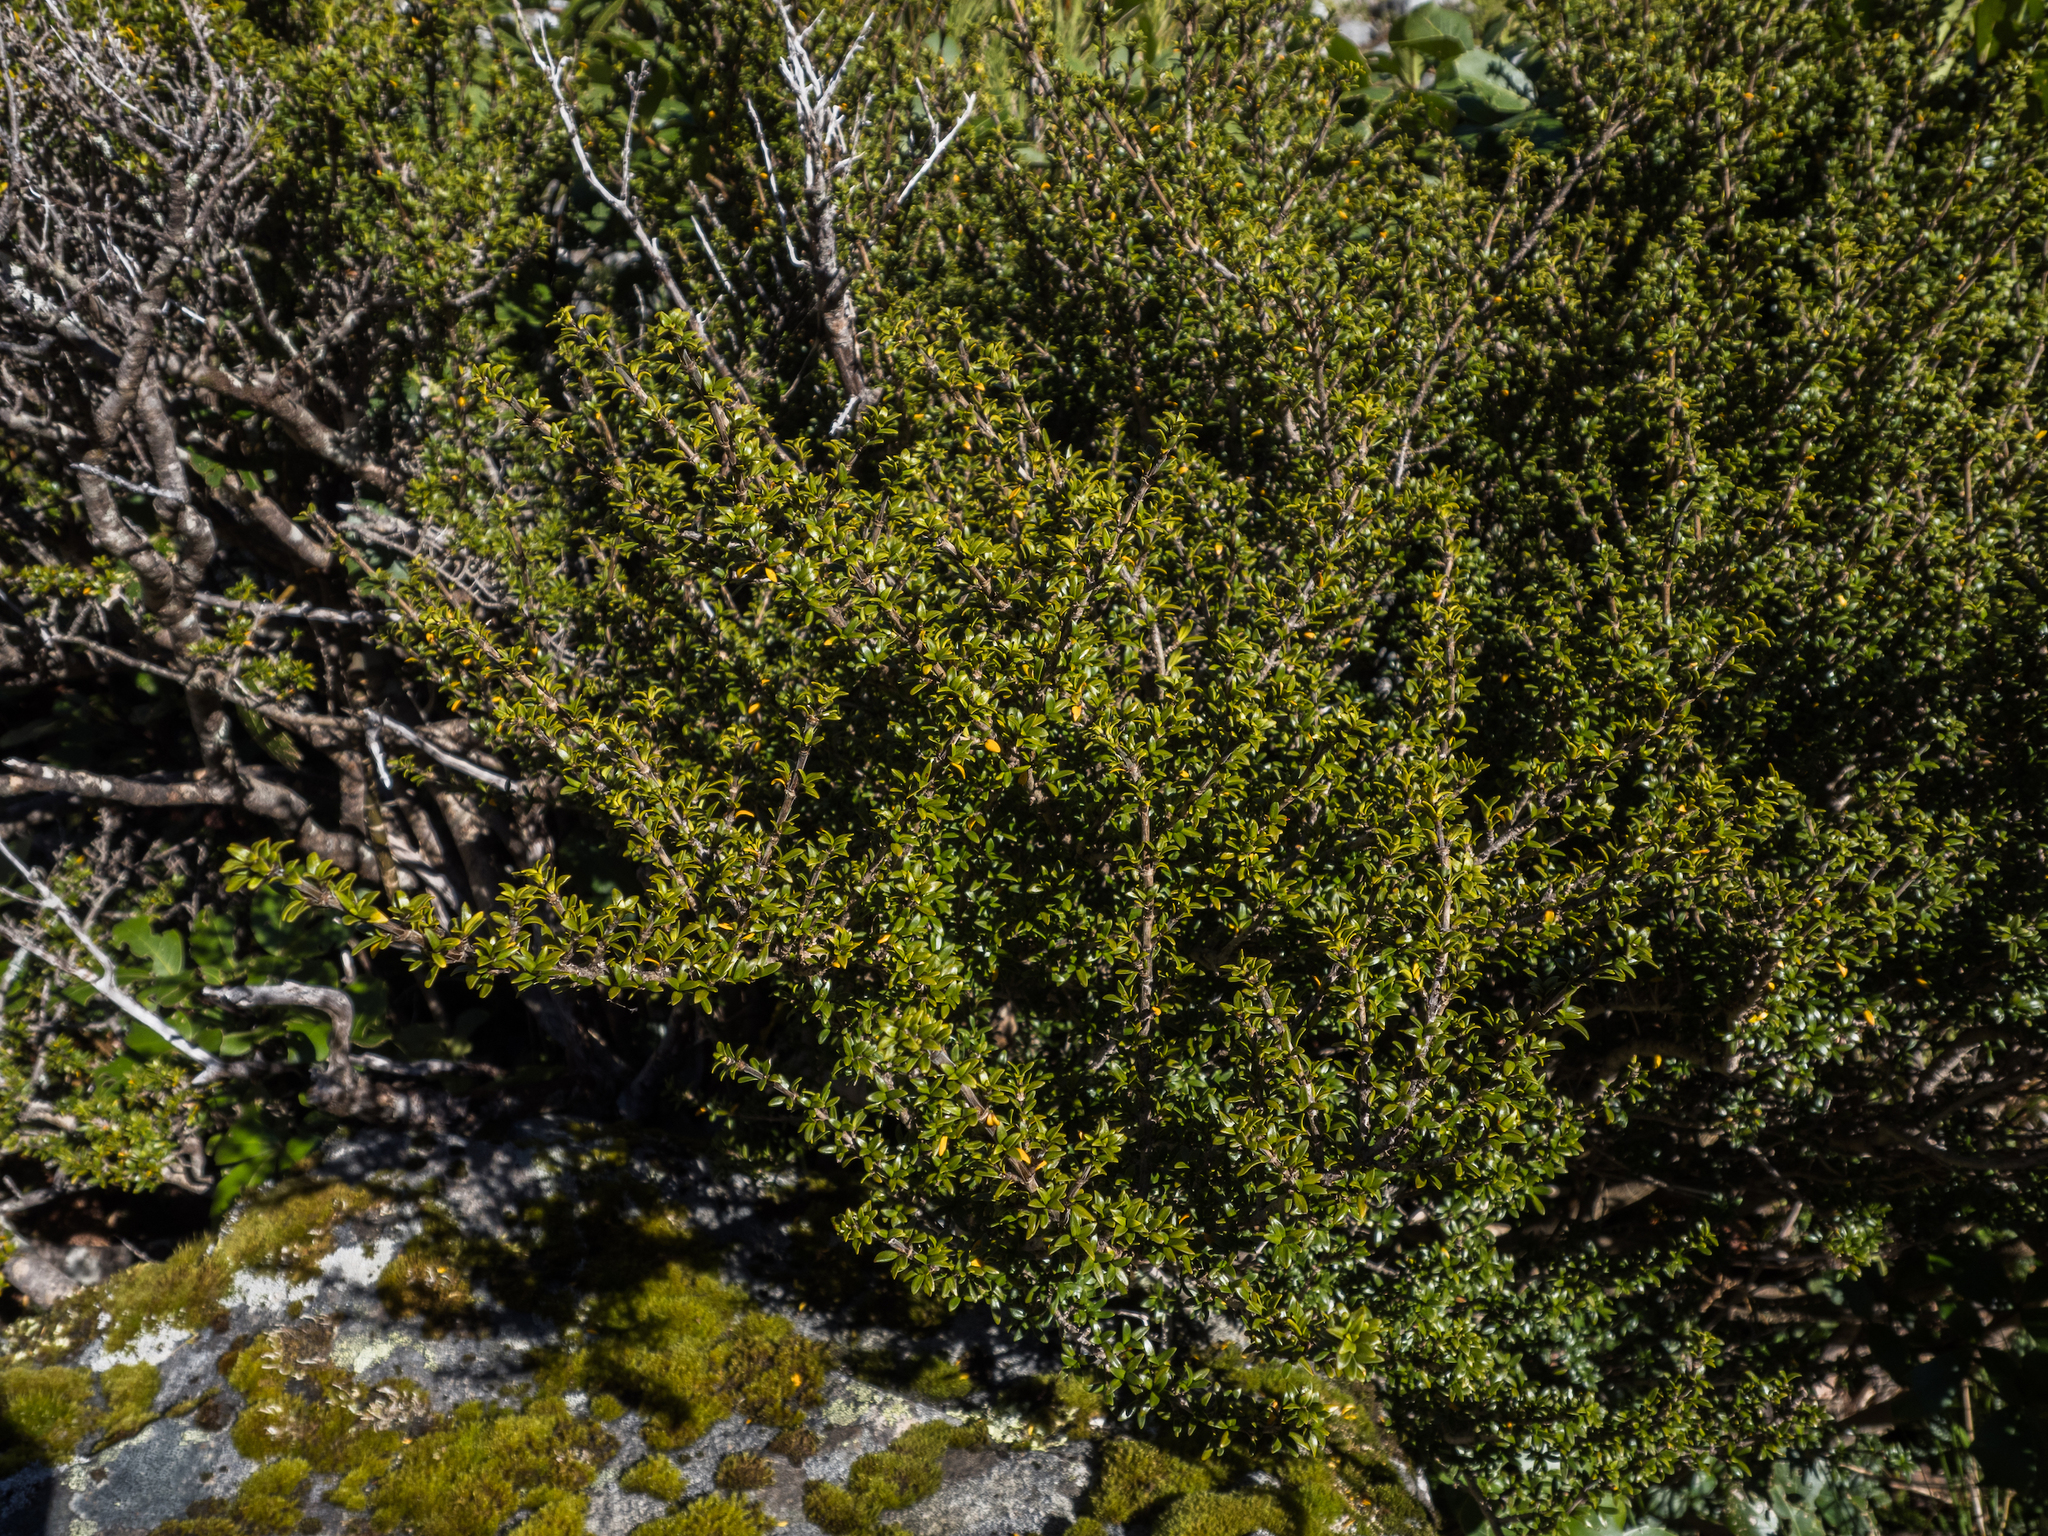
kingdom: Plantae
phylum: Tracheophyta
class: Magnoliopsida
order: Gentianales
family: Rubiaceae
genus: Coprosma
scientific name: Coprosma pseudocuneata
